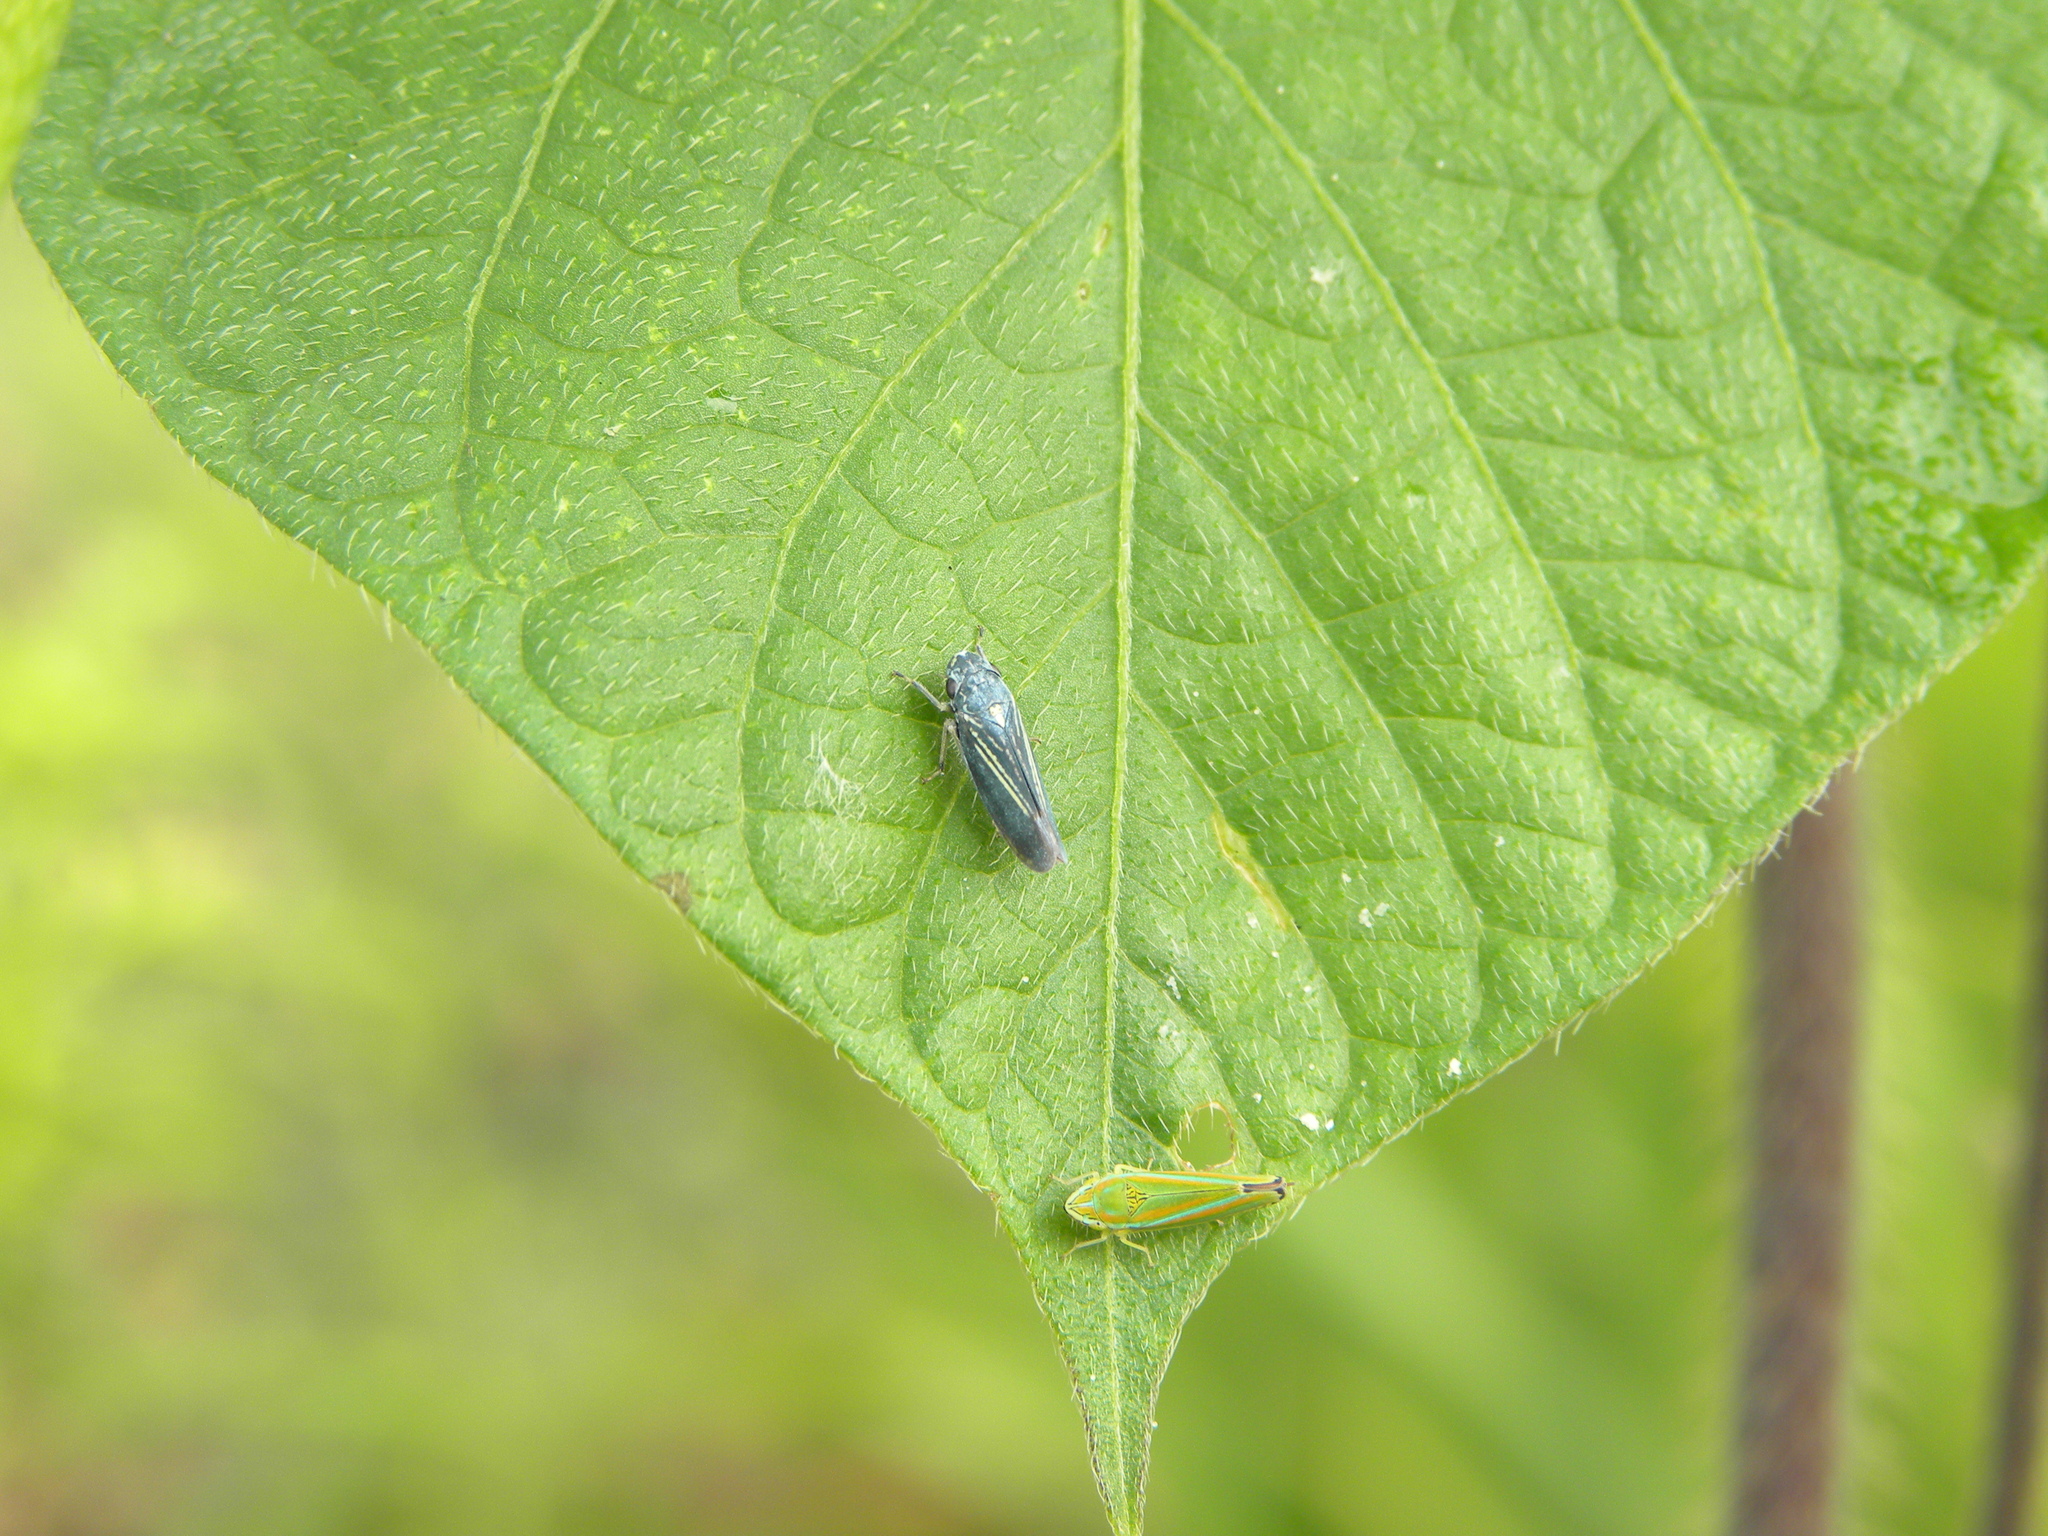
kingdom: Animalia
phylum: Arthropoda
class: Insecta
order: Hemiptera
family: Cicadellidae
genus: Neokolla
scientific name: Neokolla hieroglyphica
